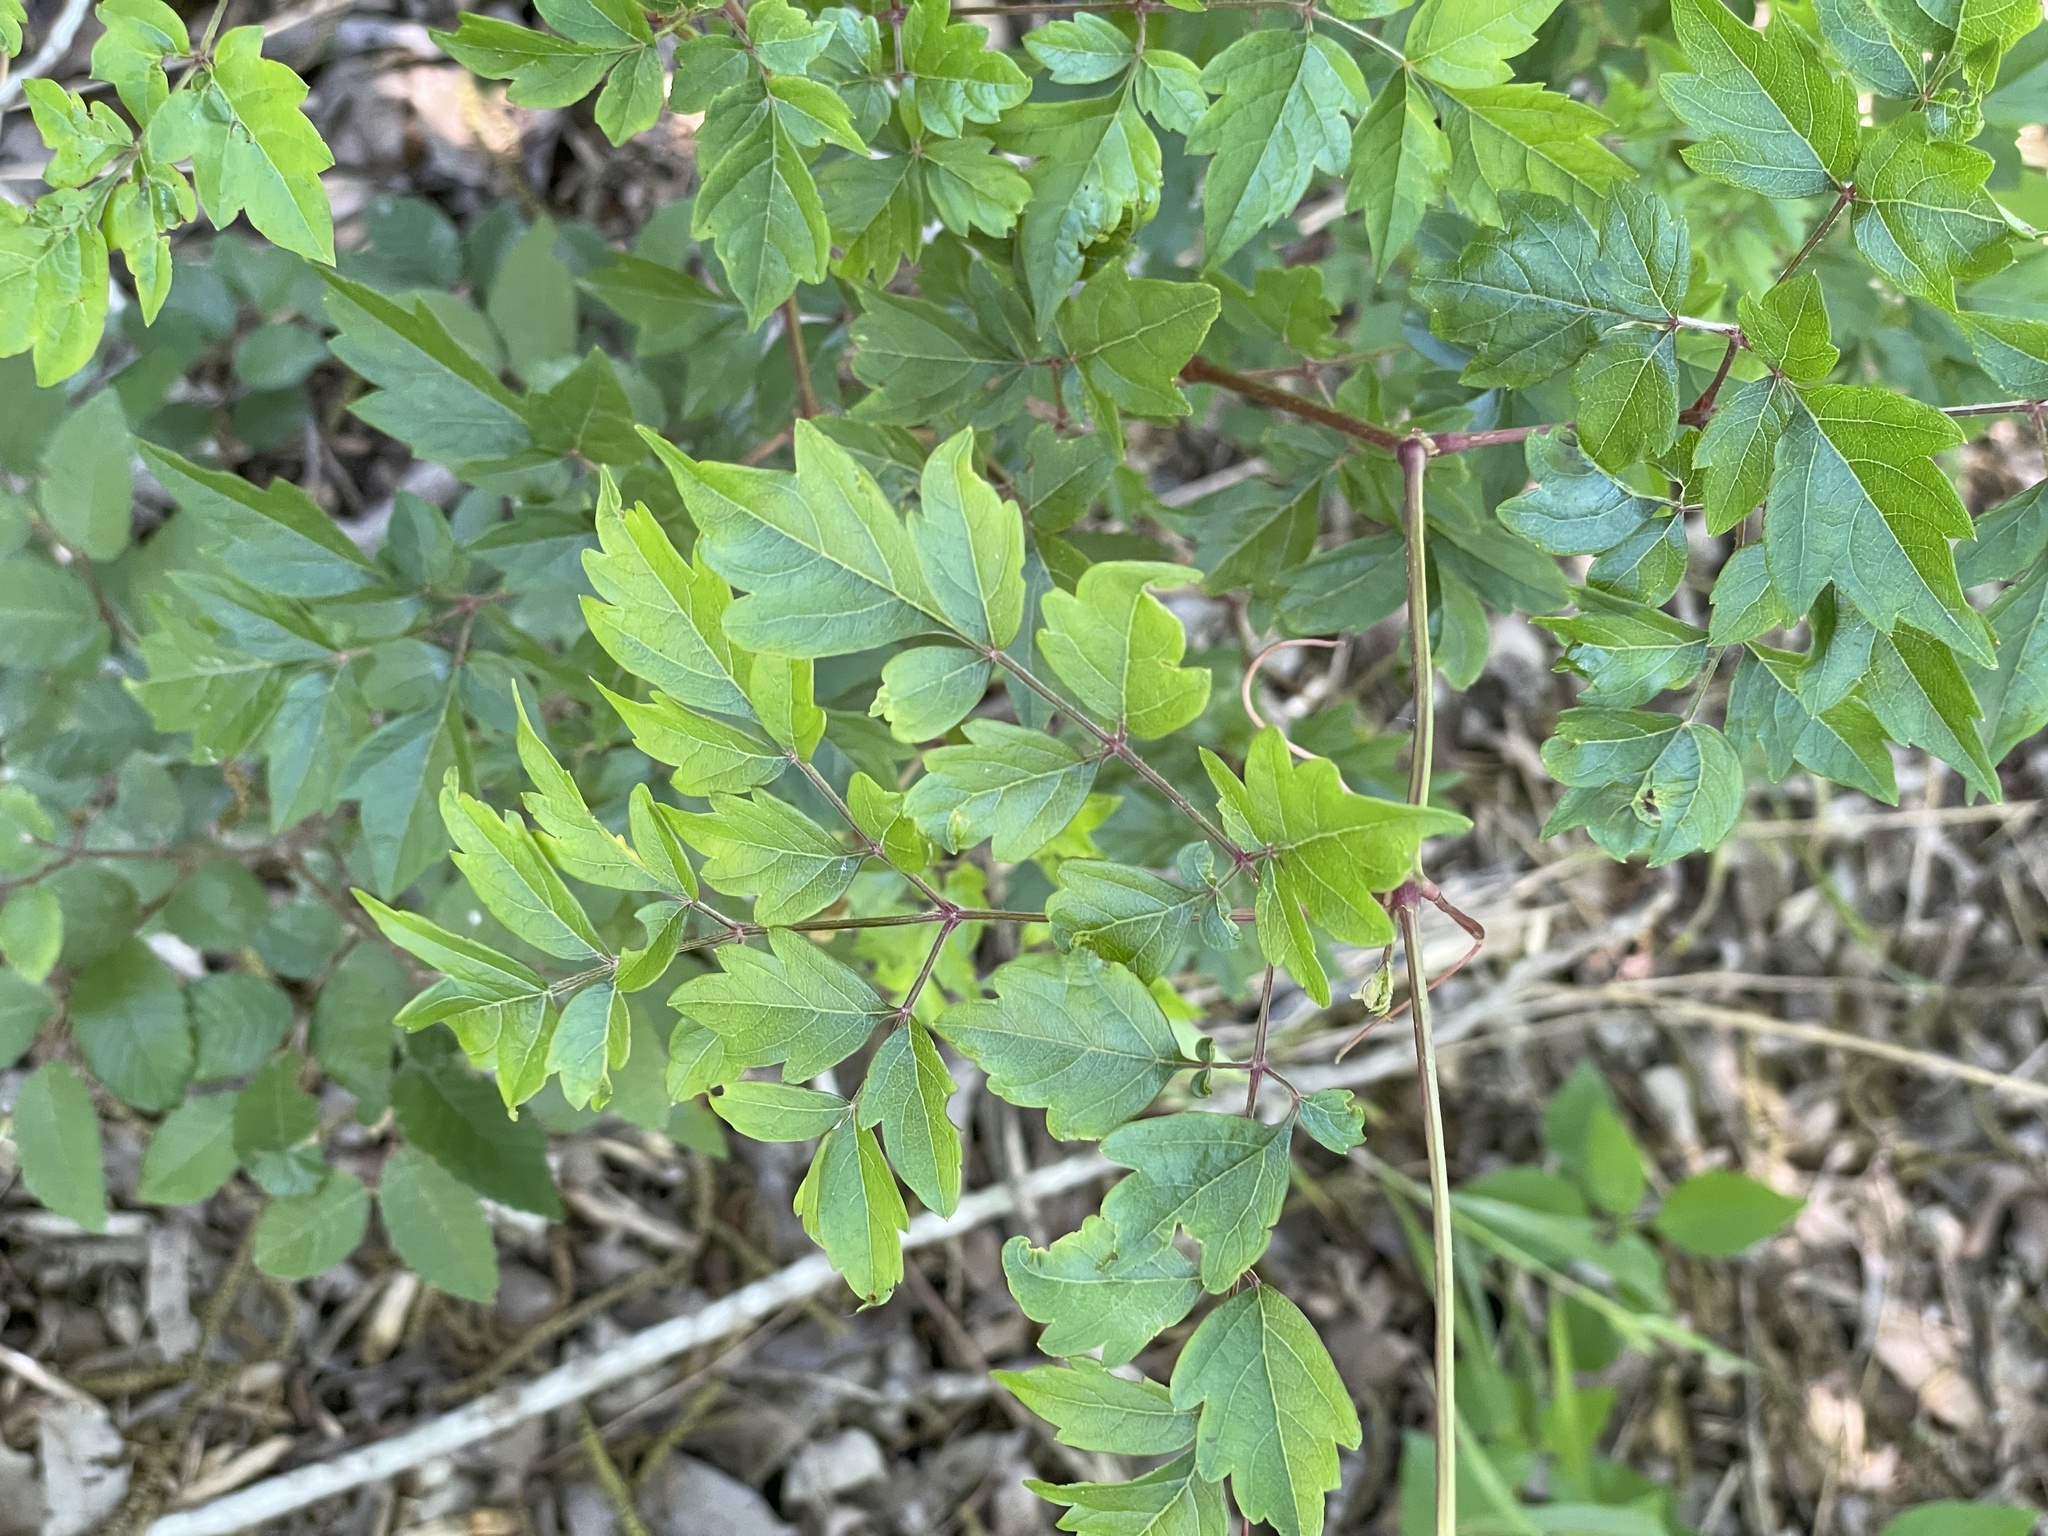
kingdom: Plantae
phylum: Tracheophyta
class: Magnoliopsida
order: Vitales
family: Vitaceae
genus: Nekemias
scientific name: Nekemias arborea
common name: Peppervine
